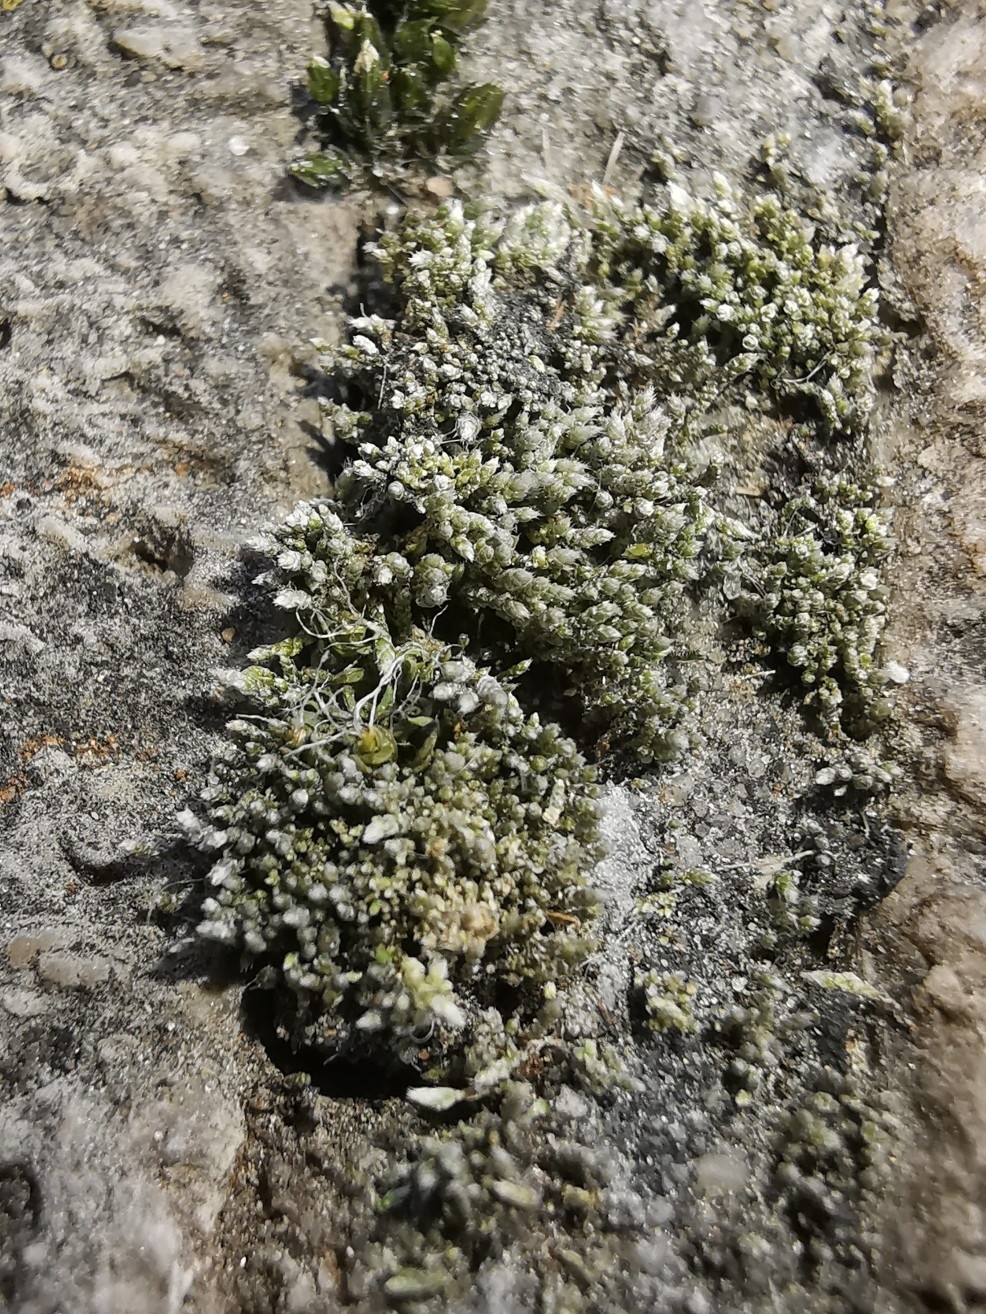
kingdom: Plantae
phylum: Bryophyta
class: Bryopsida
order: Bryales
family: Bryaceae
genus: Bryum
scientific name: Bryum argenteum
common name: Silver-moss
